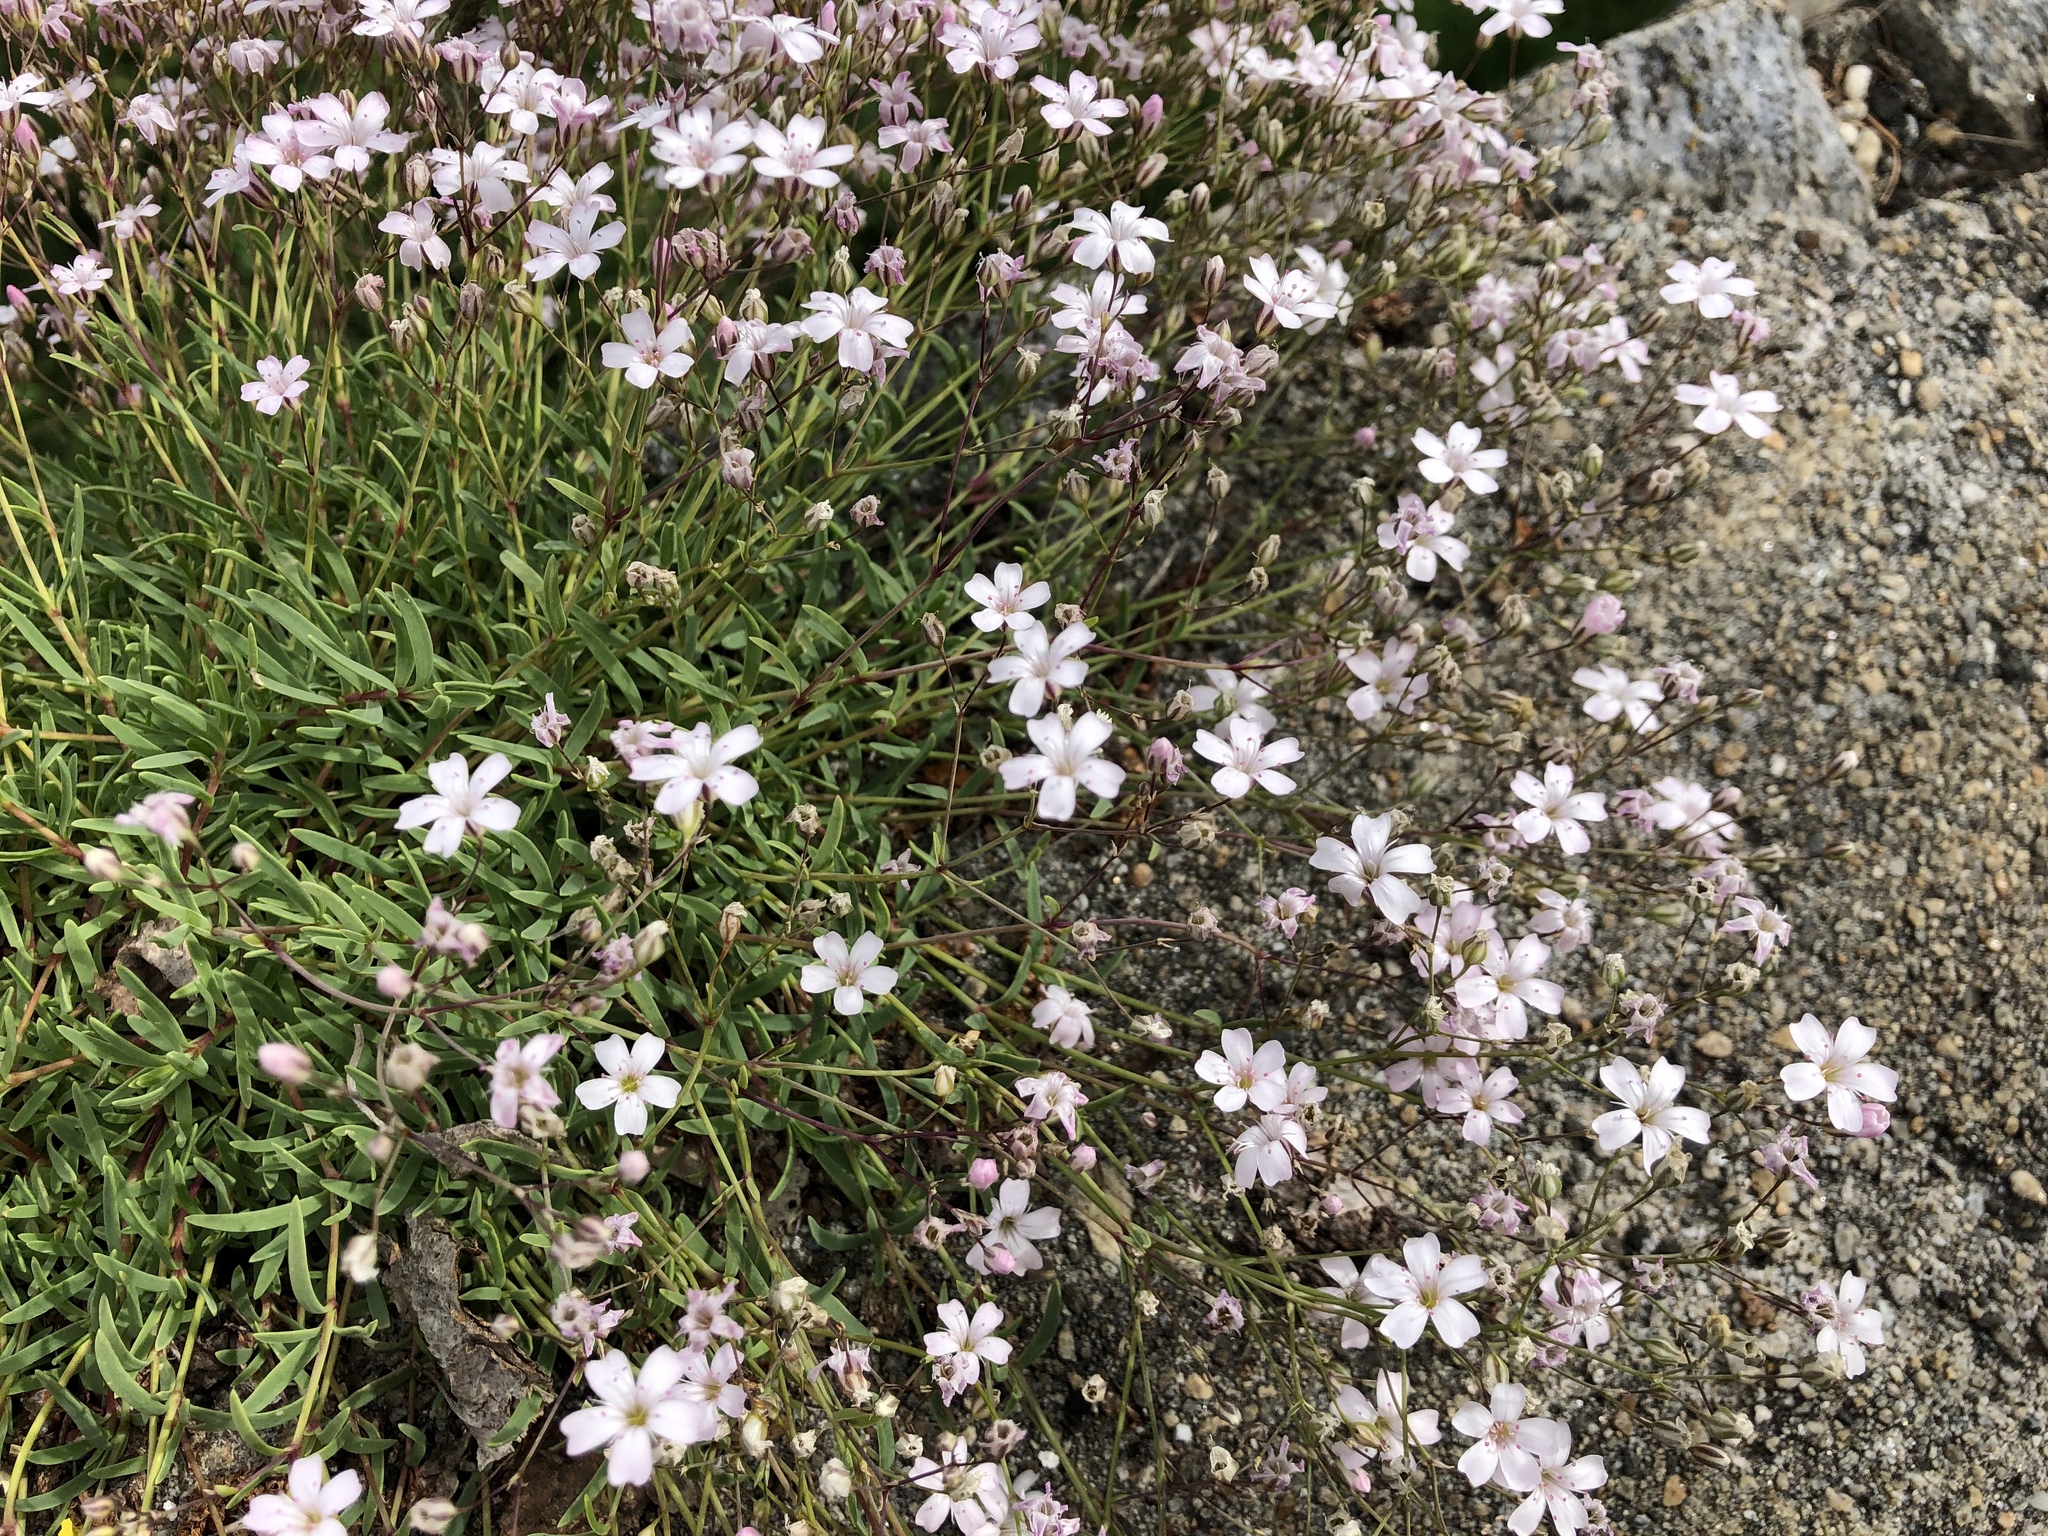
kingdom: Plantae
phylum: Tracheophyta
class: Magnoliopsida
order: Caryophyllales
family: Caryophyllaceae
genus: Gypsophila
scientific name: Gypsophila repens
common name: Creeping baby's-breath
